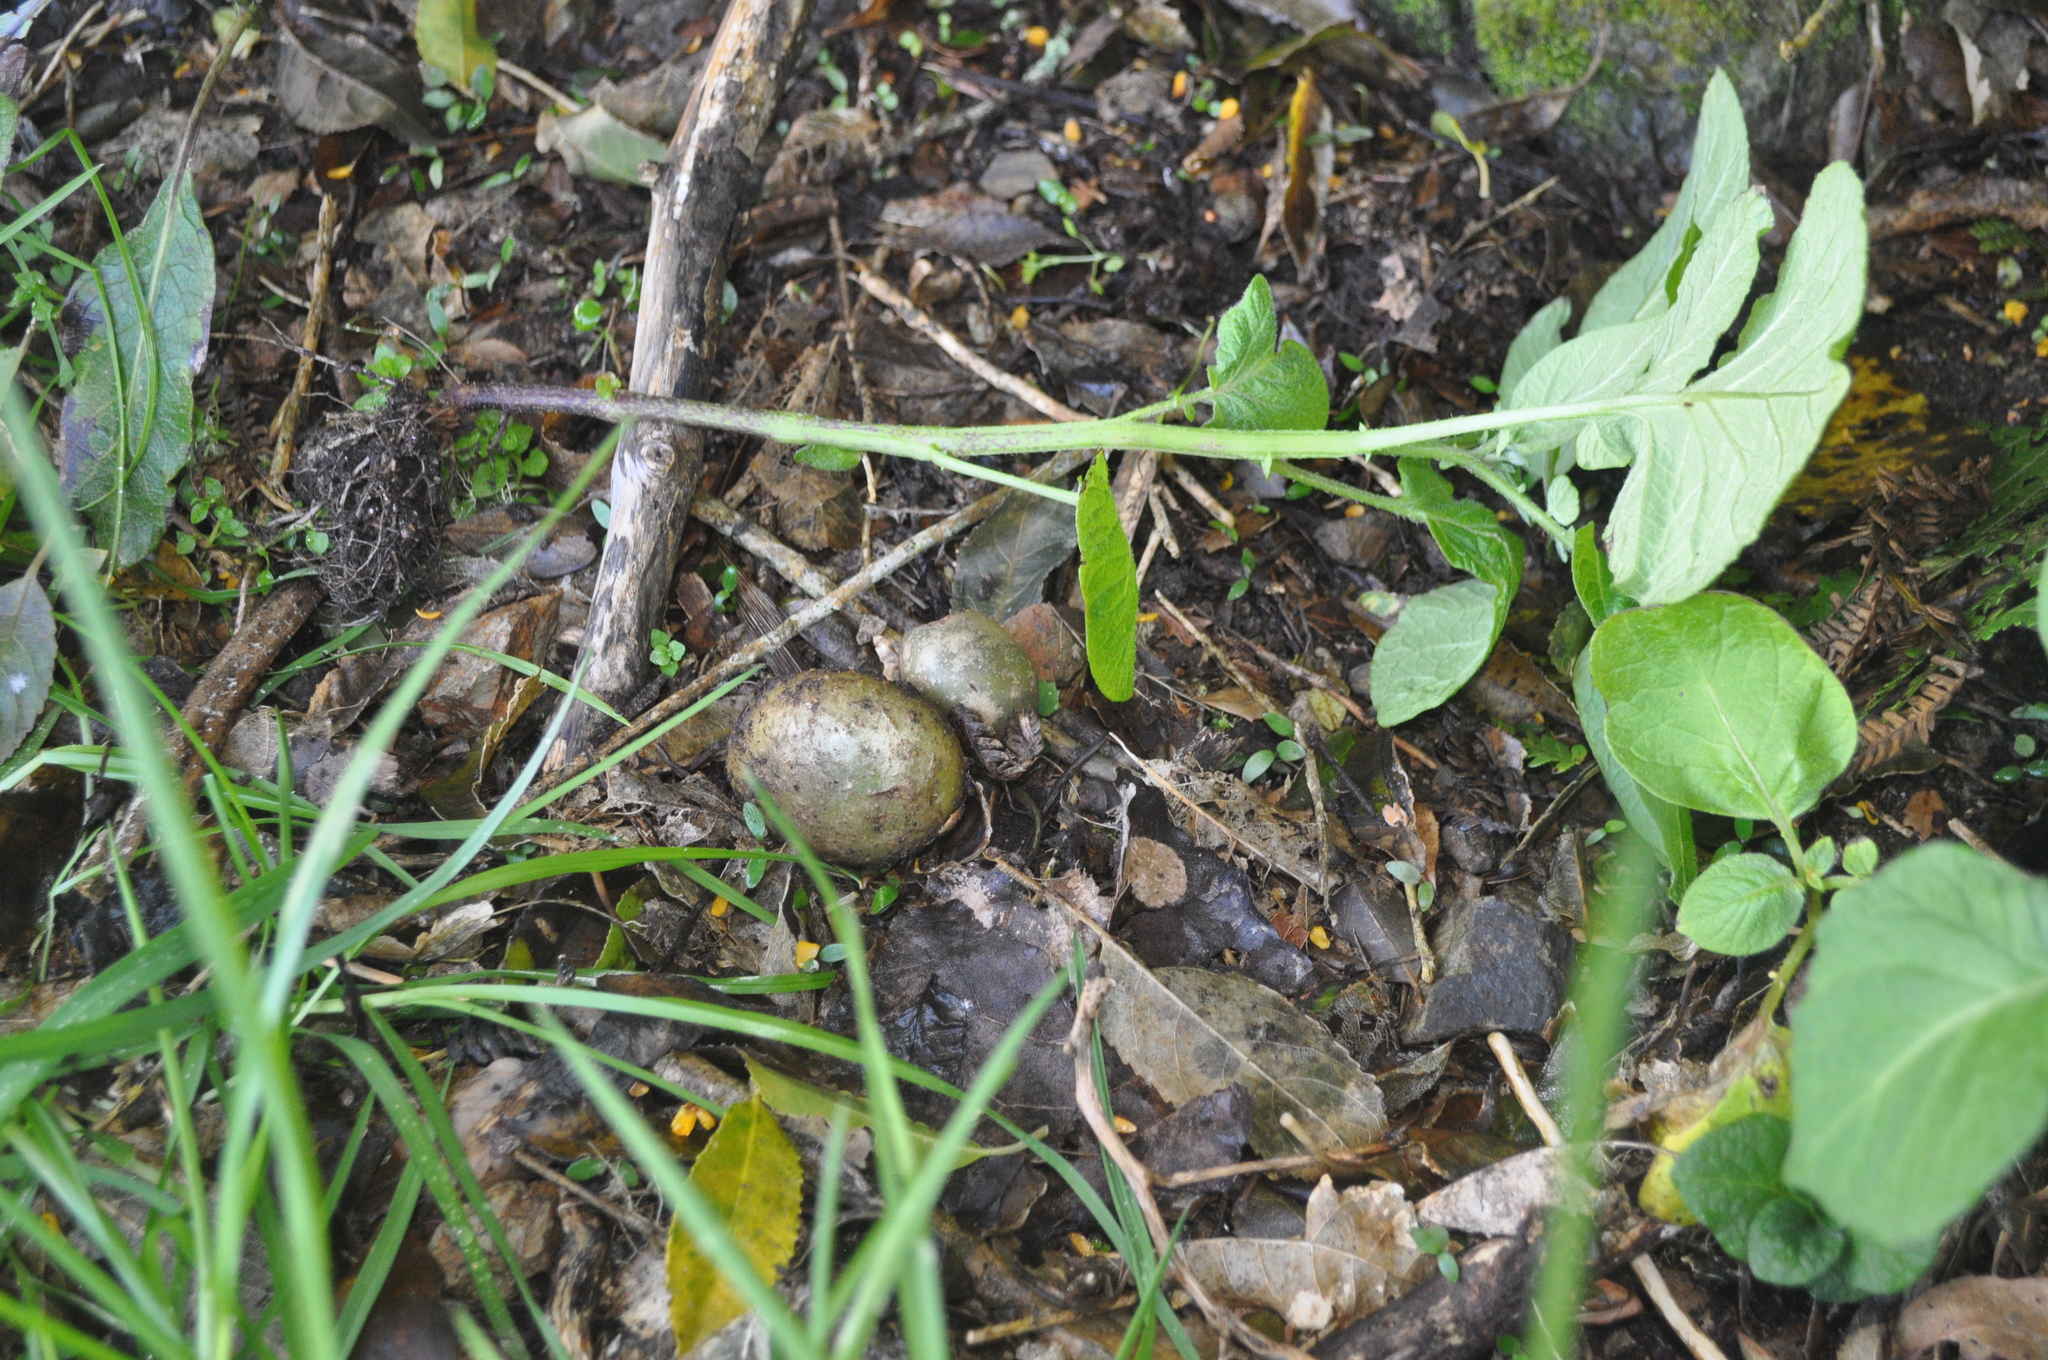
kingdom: Plantae
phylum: Tracheophyta
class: Magnoliopsida
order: Solanales
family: Solanaceae
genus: Solanum
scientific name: Solanum tuberosum
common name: Potato
